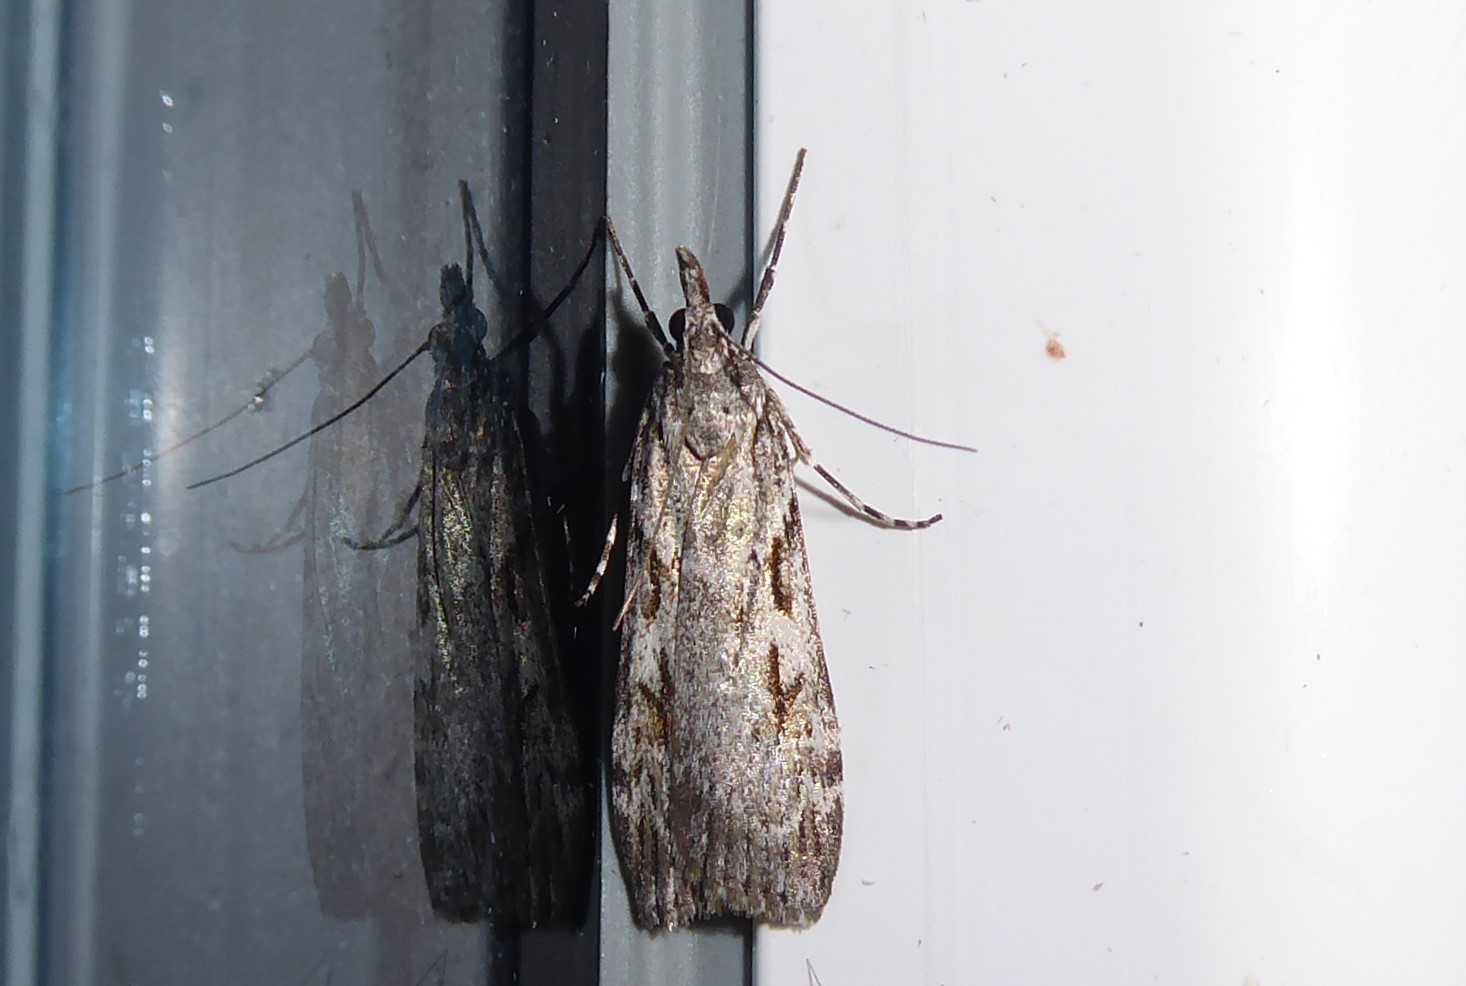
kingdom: Animalia
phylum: Arthropoda
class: Insecta
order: Lepidoptera
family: Crambidae
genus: Scoparia
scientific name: Scoparia halopis
